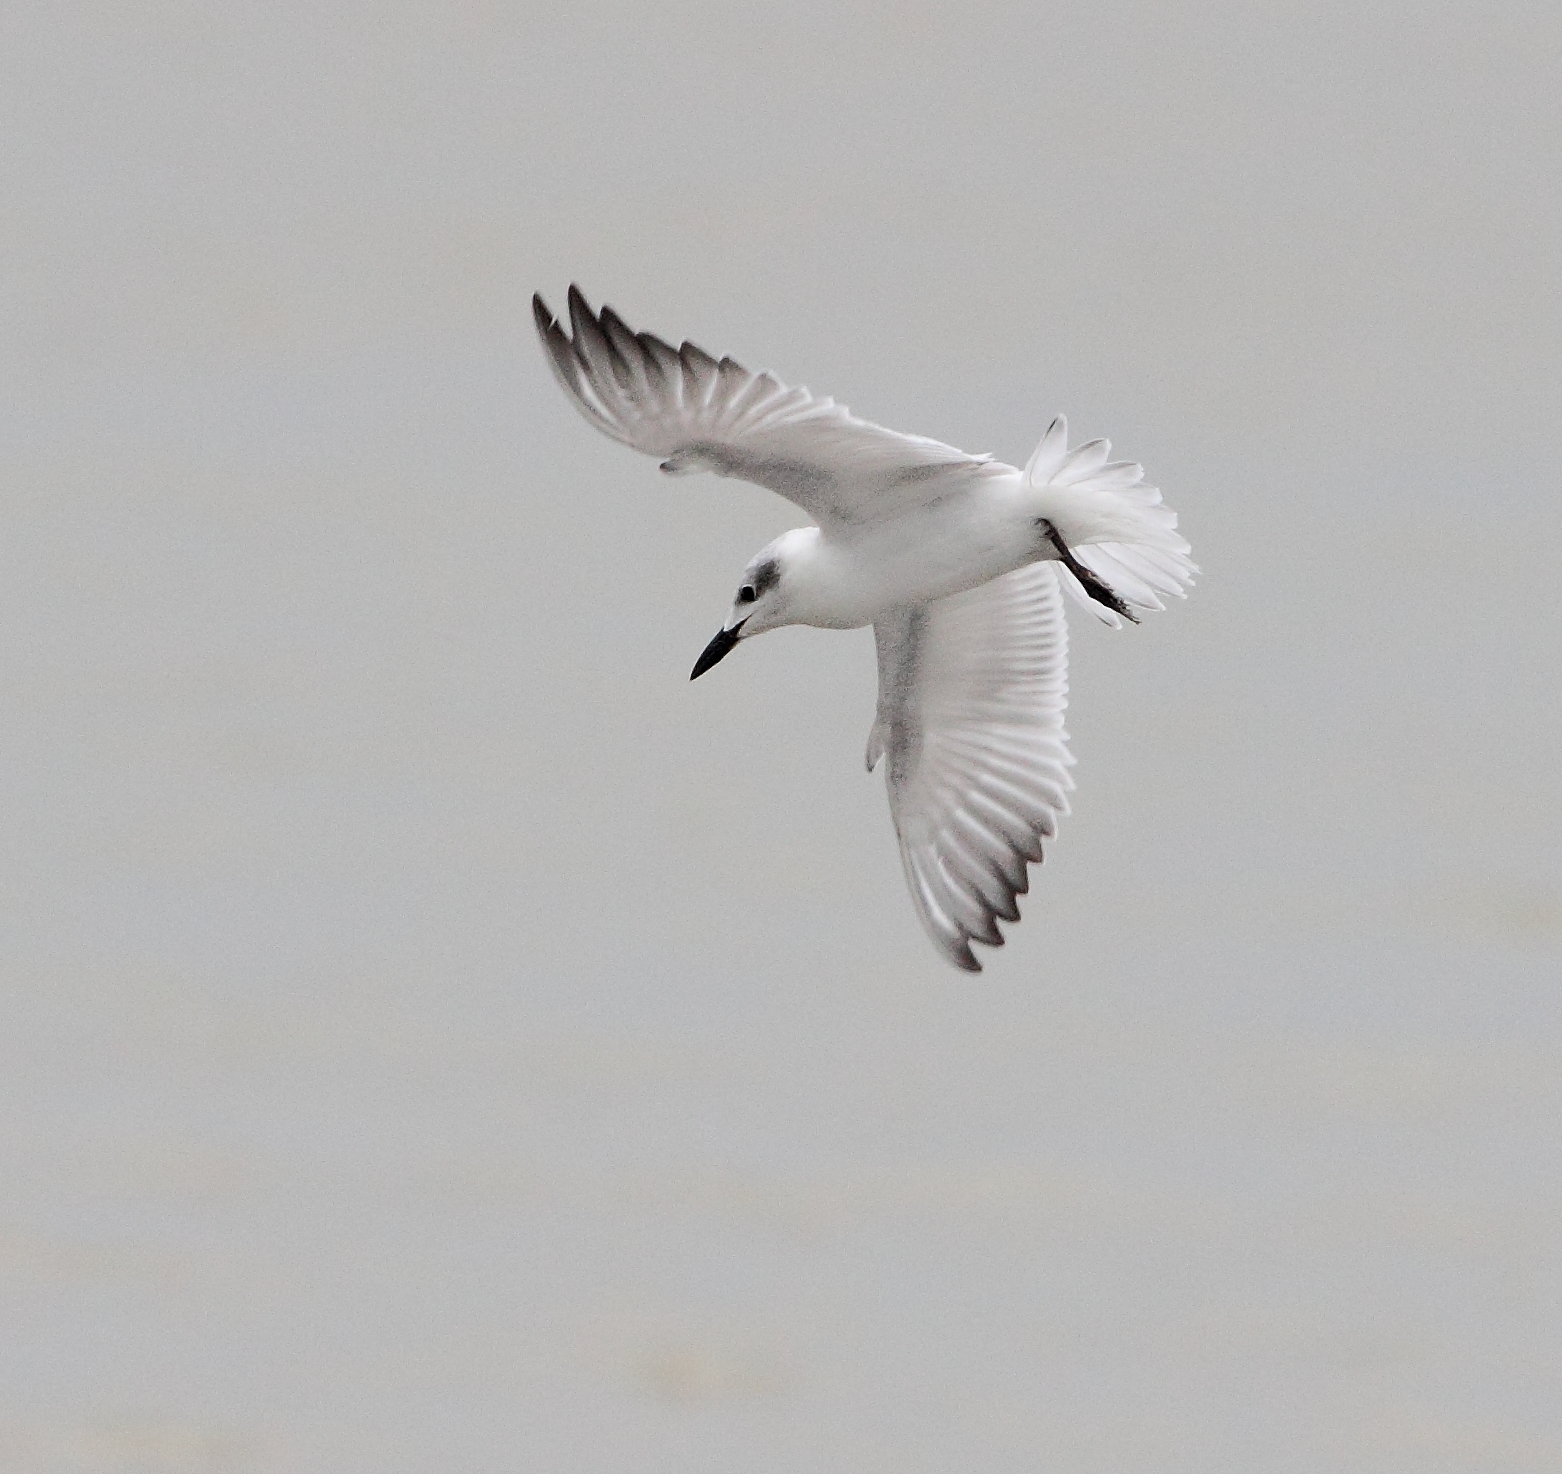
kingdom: Animalia
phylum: Chordata
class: Aves
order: Charadriiformes
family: Laridae
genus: Gelochelidon
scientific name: Gelochelidon nilotica
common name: Gull-billed tern
